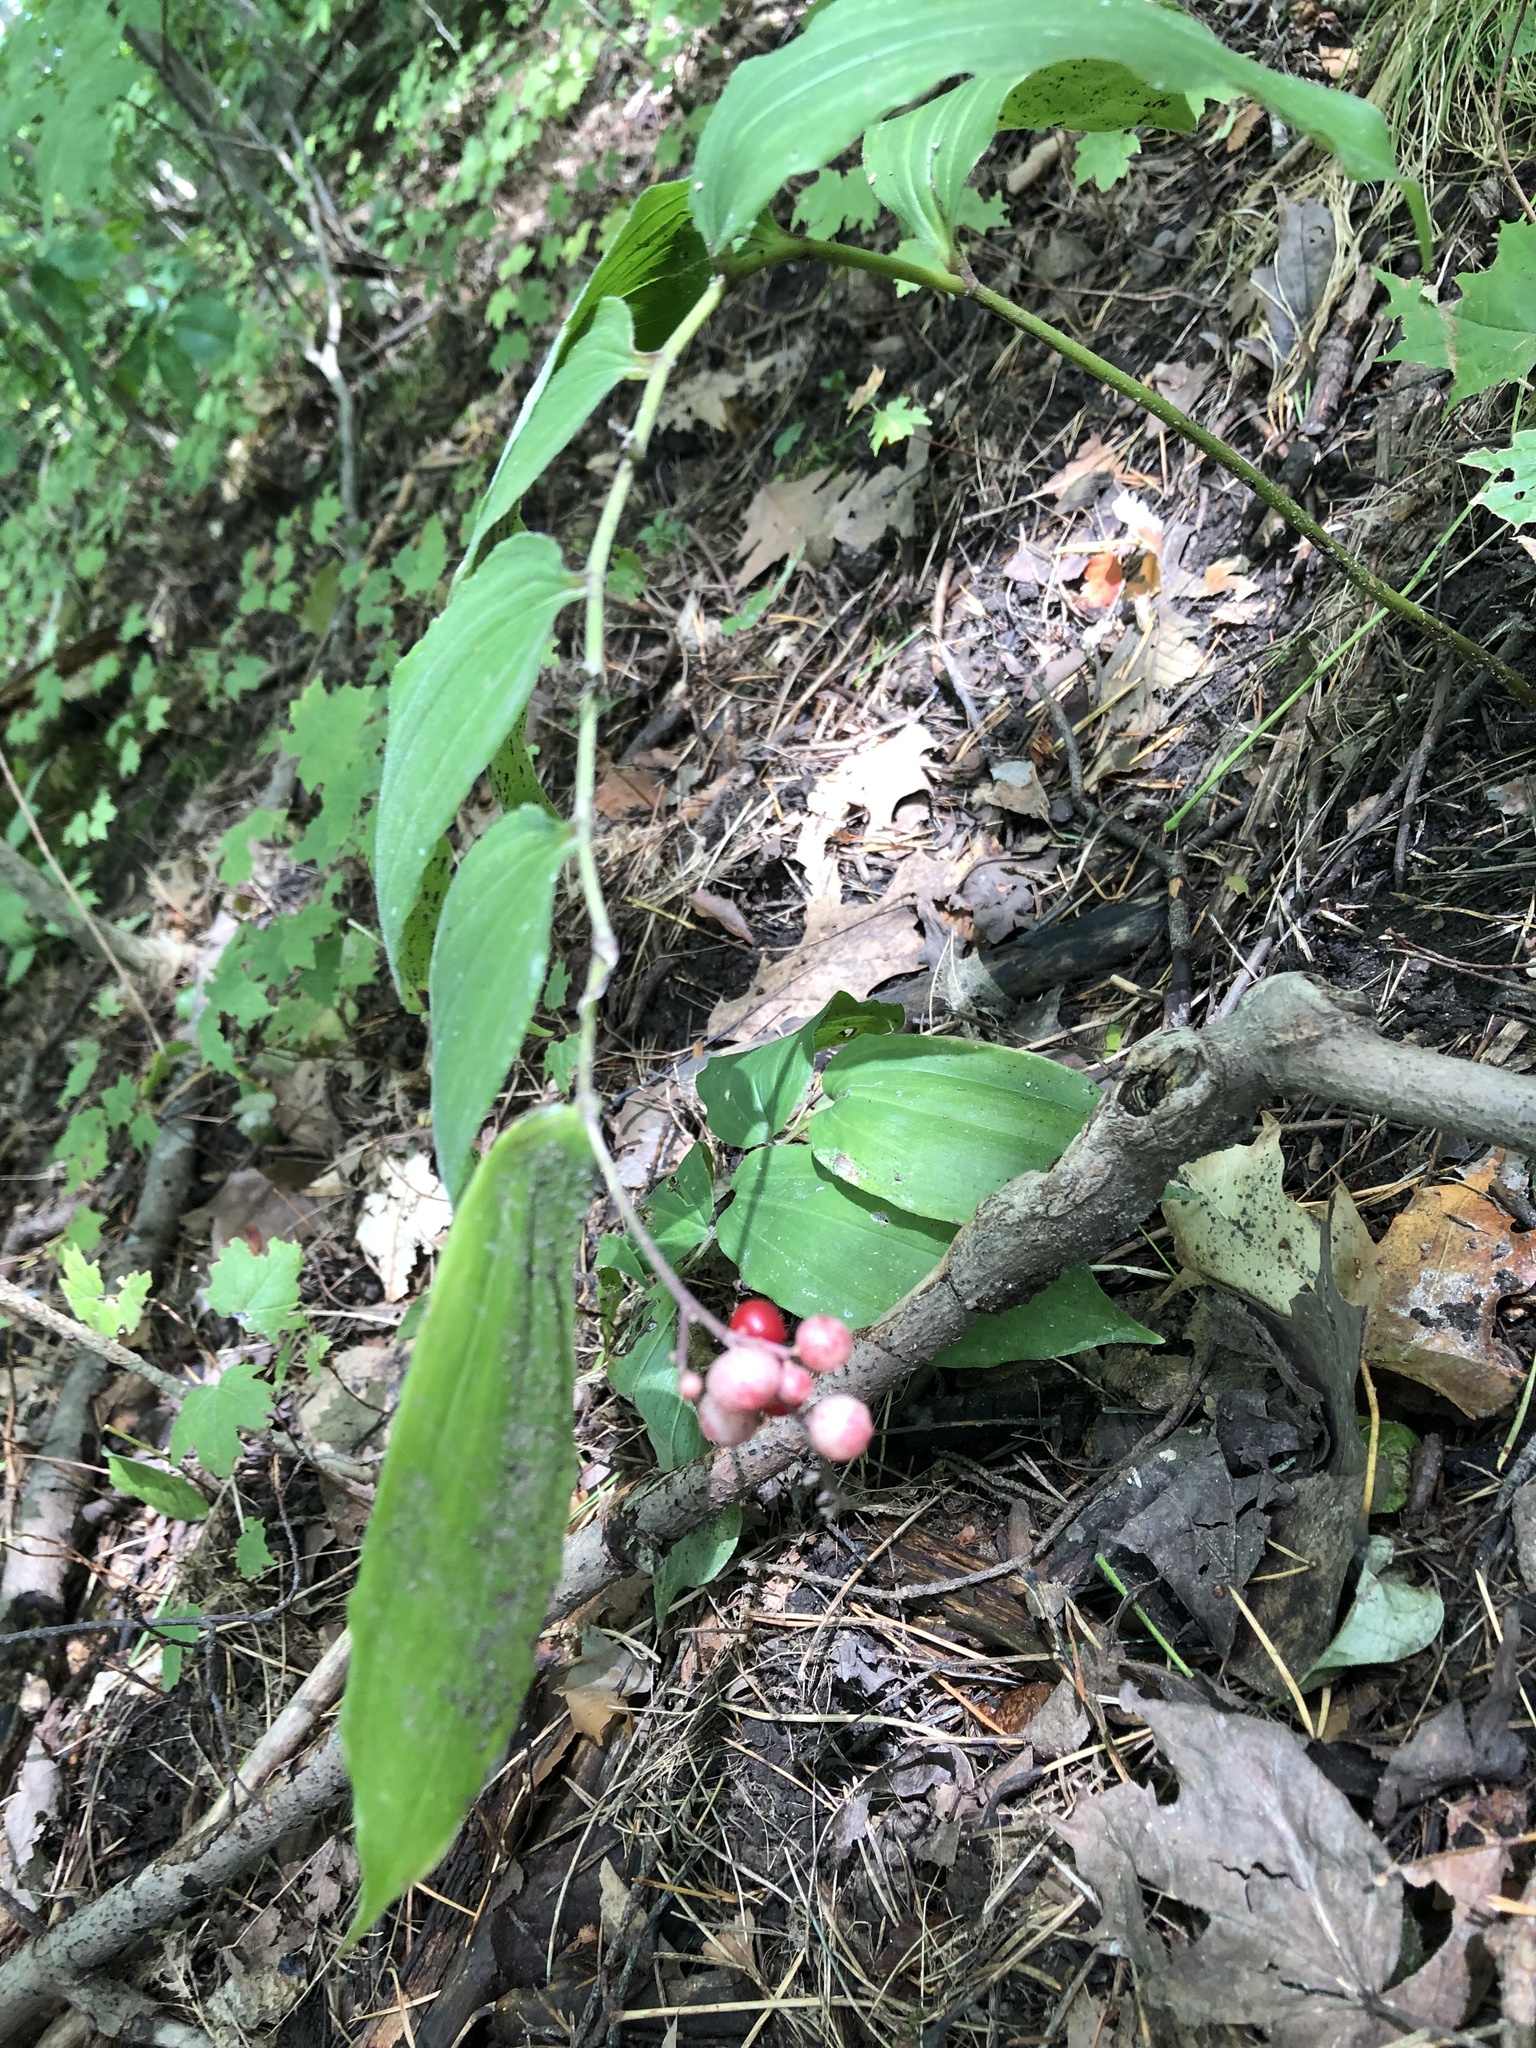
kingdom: Plantae
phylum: Tracheophyta
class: Liliopsida
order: Asparagales
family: Asparagaceae
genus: Maianthemum
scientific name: Maianthemum racemosum
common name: False spikenard
